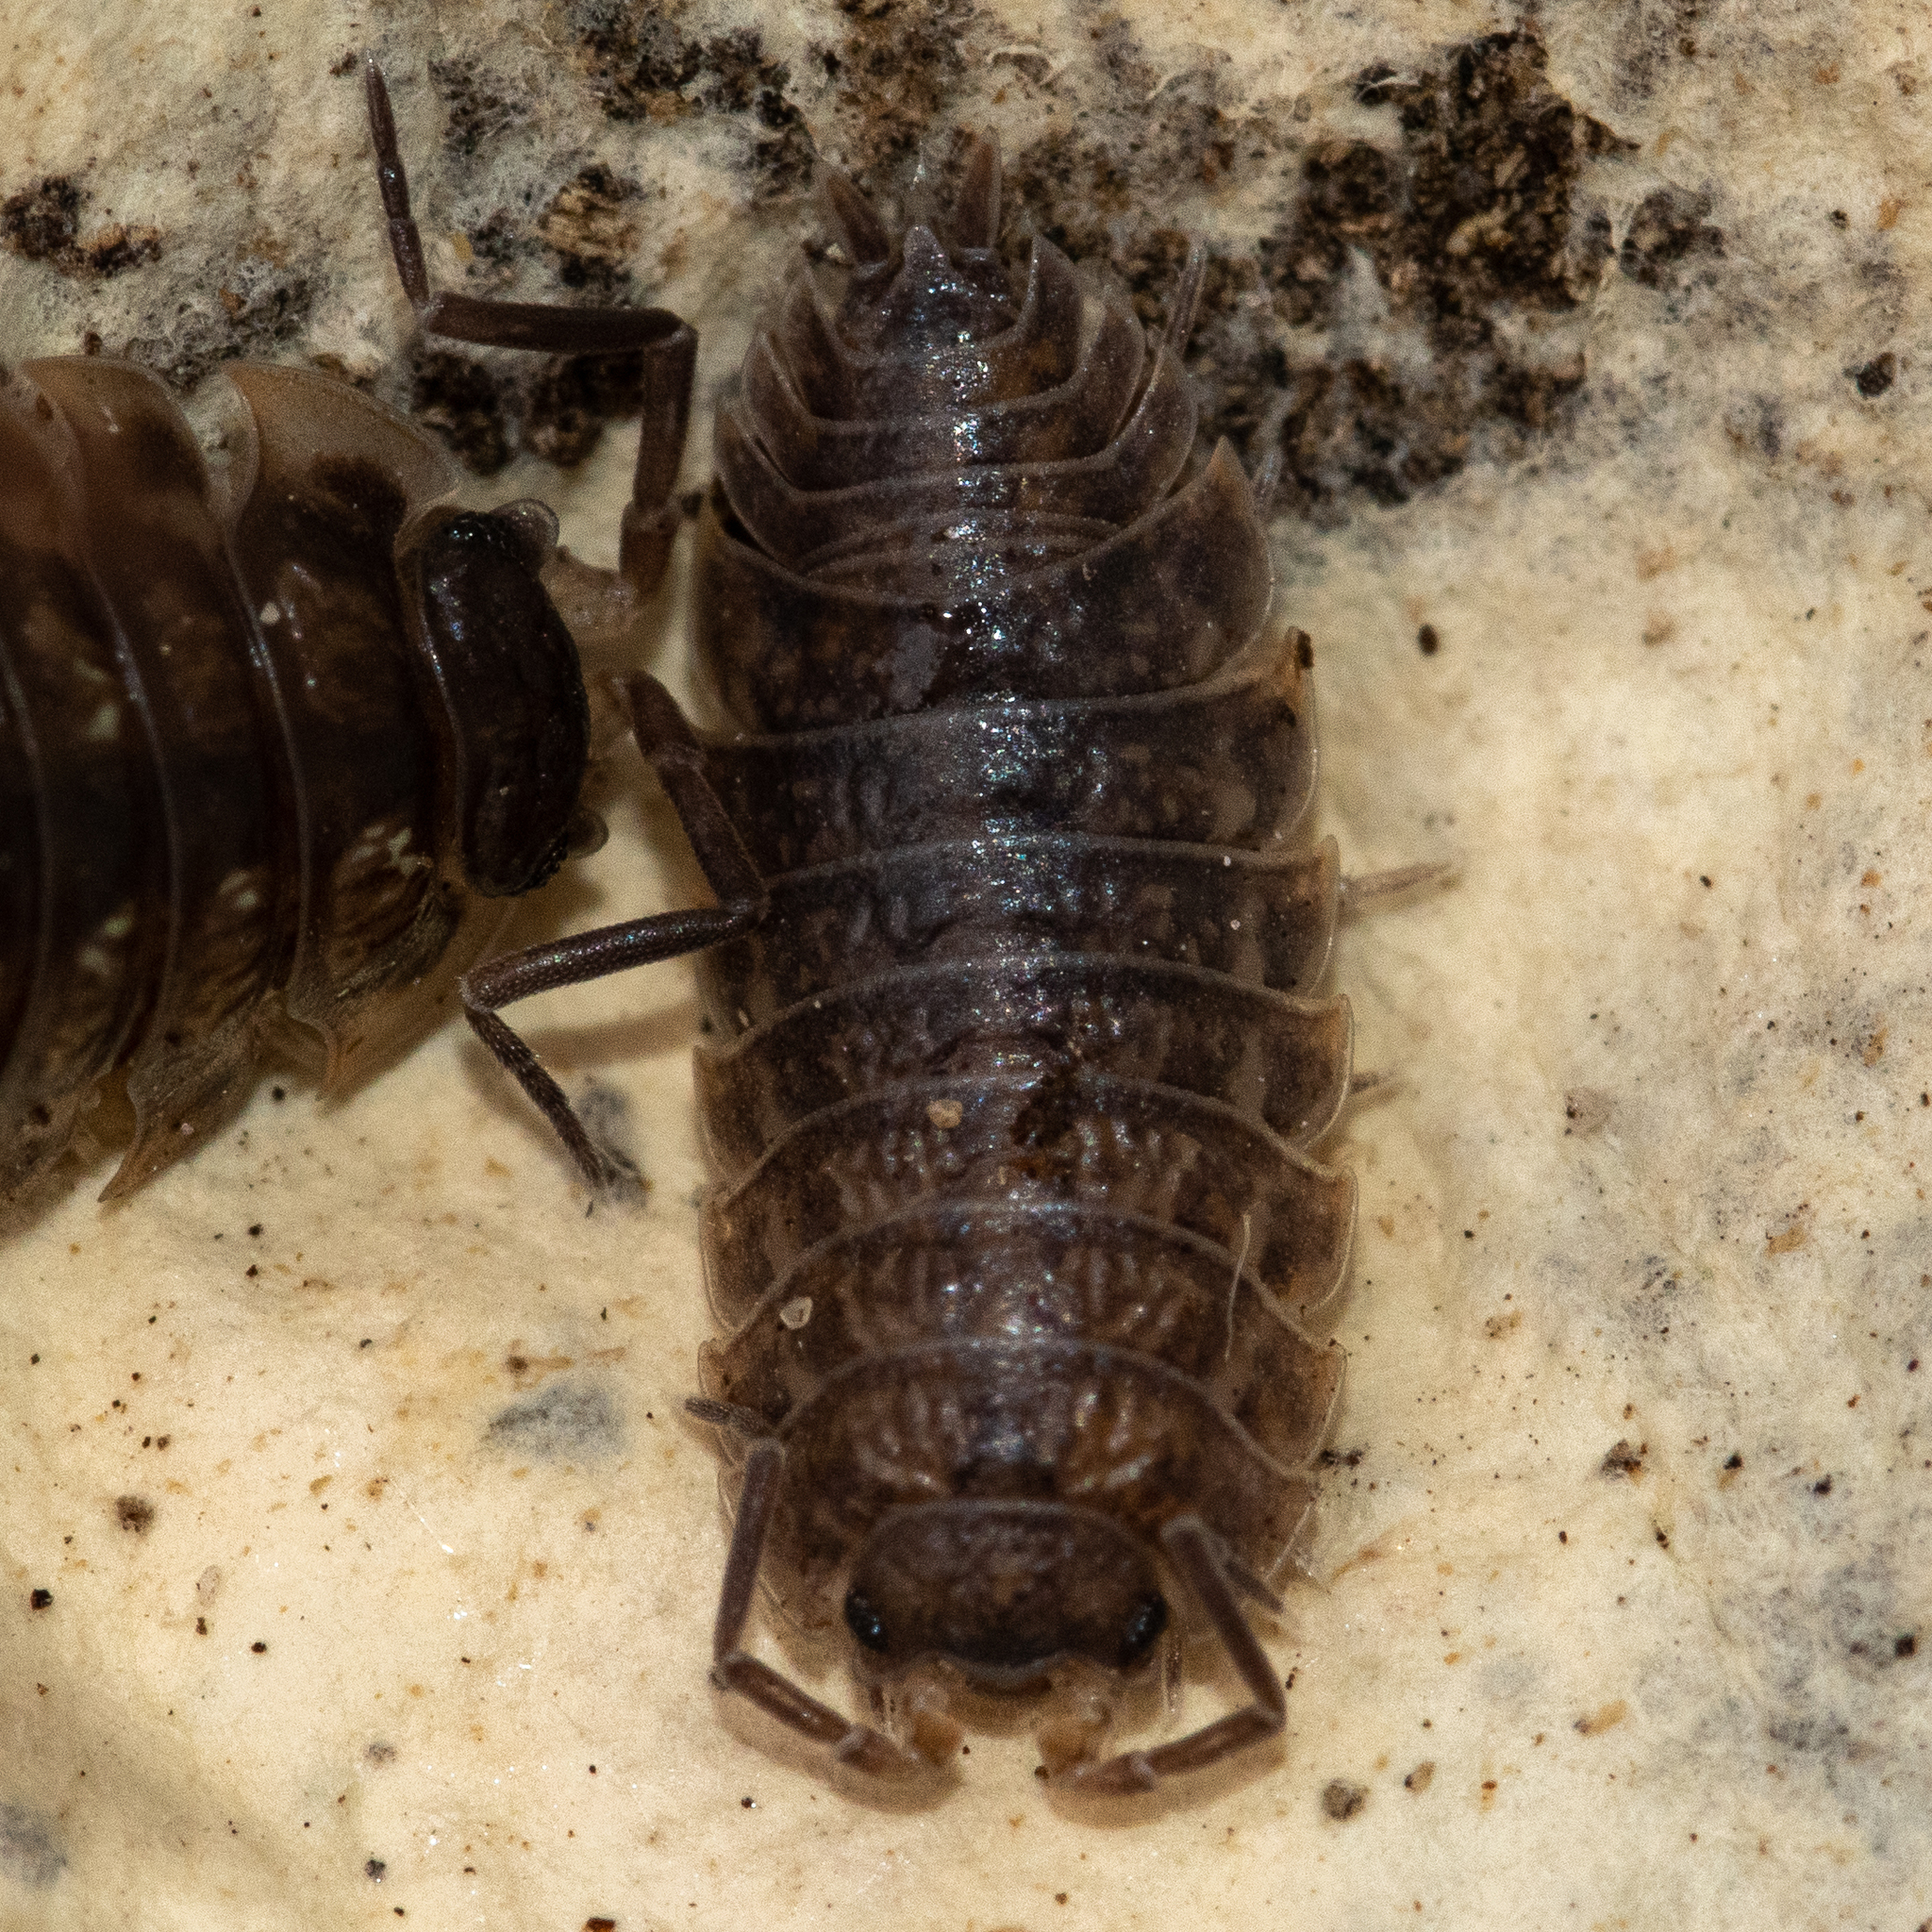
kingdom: Animalia
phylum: Arthropoda
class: Malacostraca
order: Isopoda
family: Trachelipodidae
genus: Trachelipus
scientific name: Trachelipus rathkii
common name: Isopod
